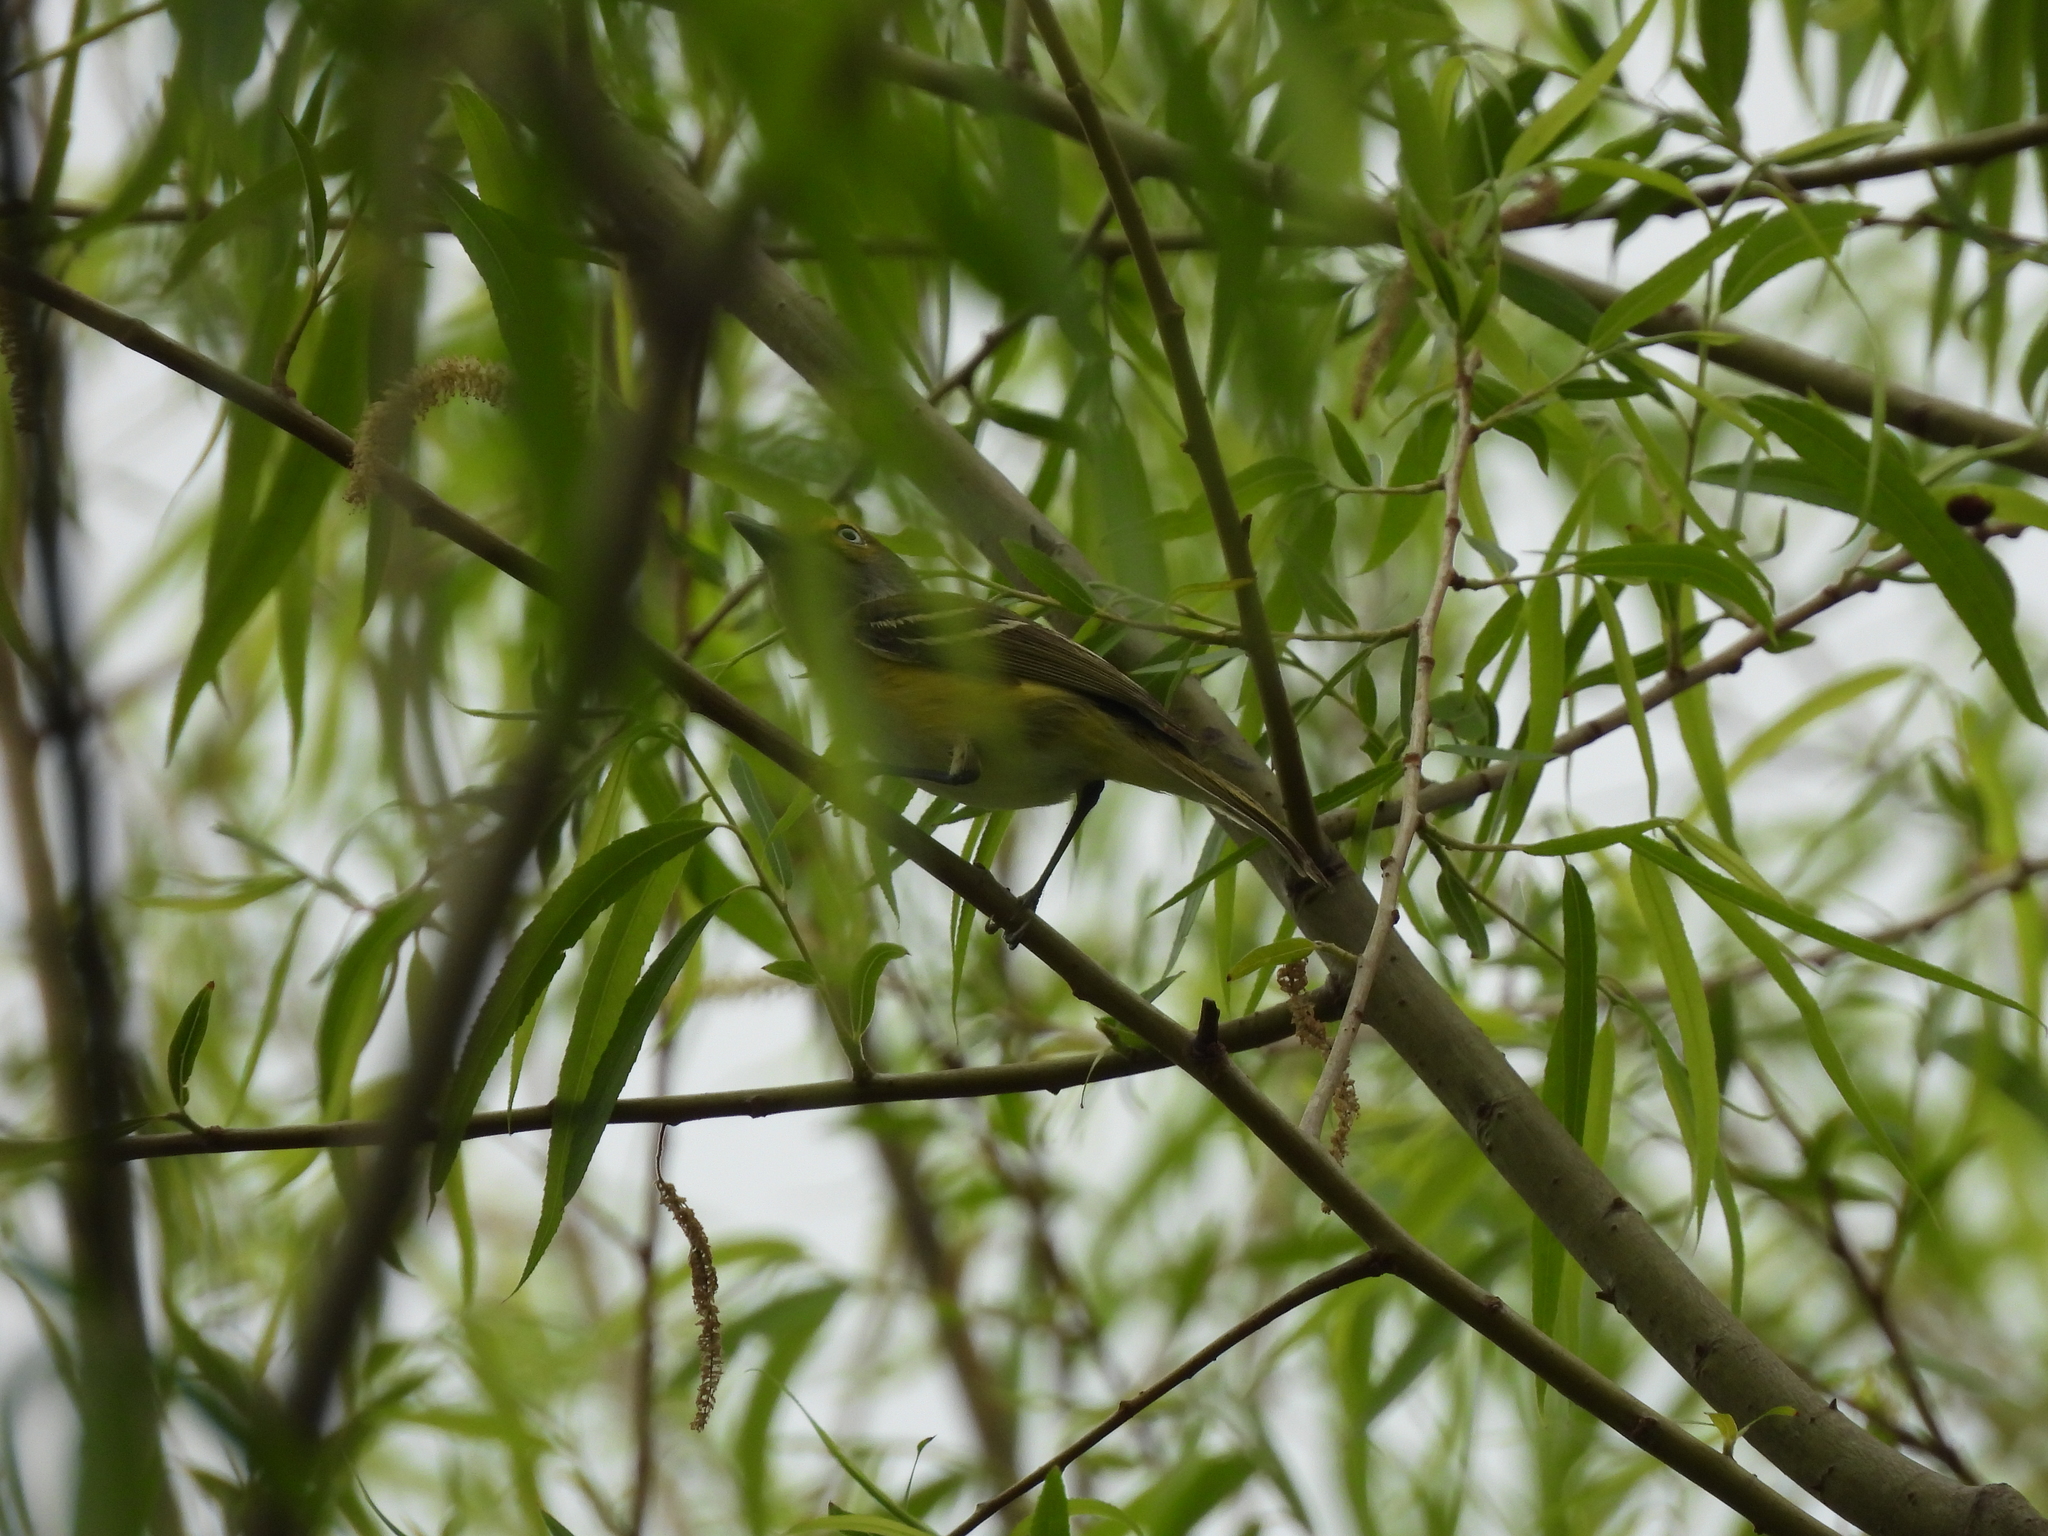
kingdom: Animalia
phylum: Chordata
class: Aves
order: Passeriformes
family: Vireonidae
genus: Vireo
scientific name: Vireo griseus
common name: White-eyed vireo
